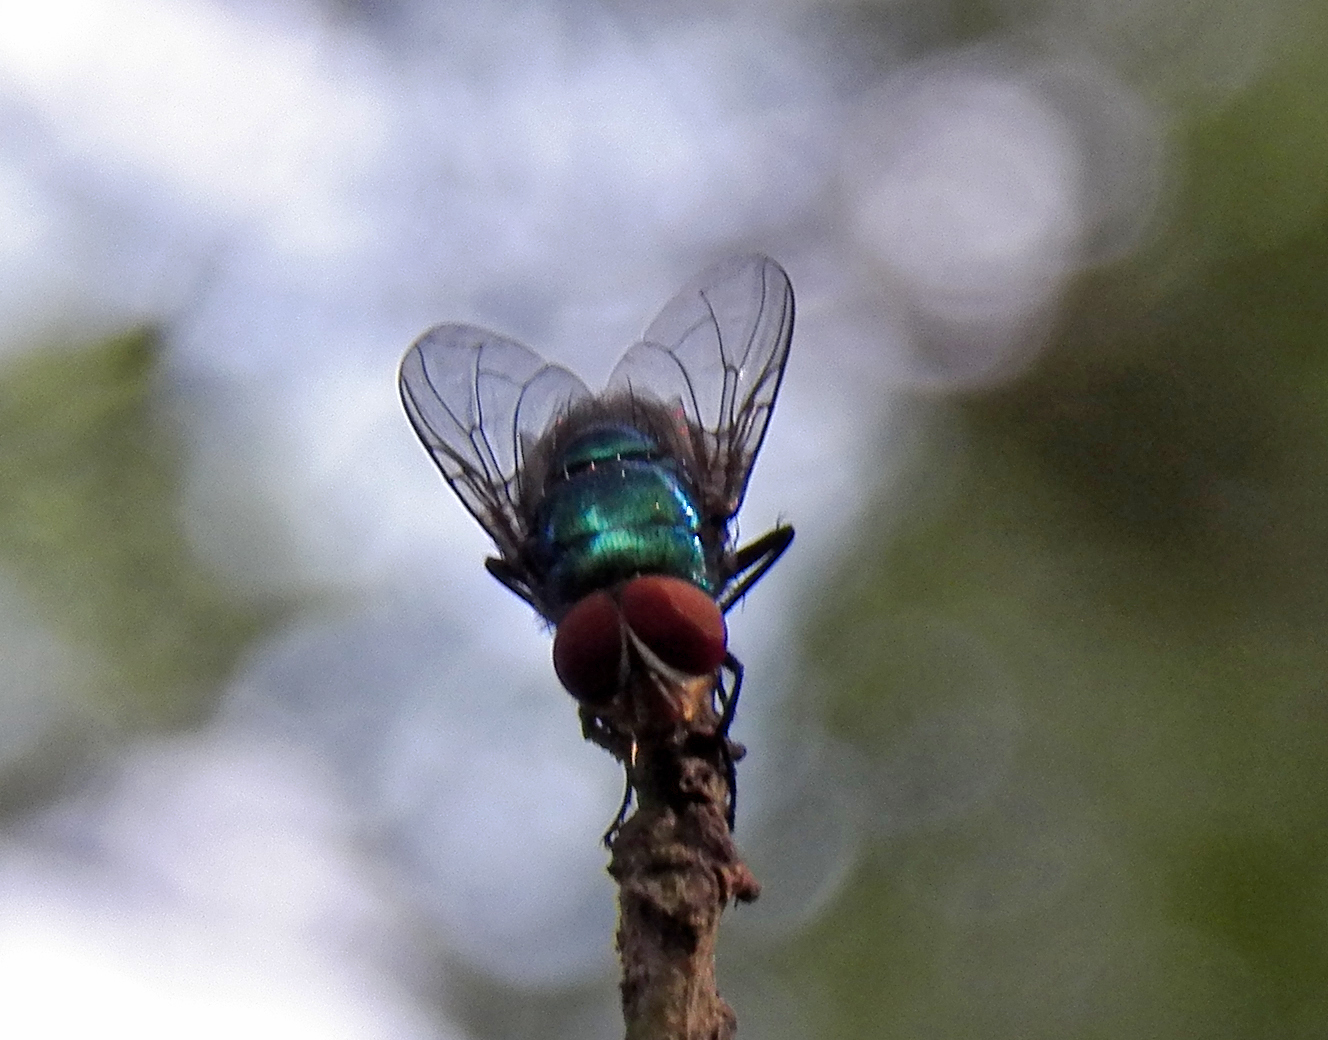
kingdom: Animalia
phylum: Arthropoda
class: Insecta
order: Diptera
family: Calliphoridae
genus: Chrysomya
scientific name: Chrysomya megacephala
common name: Blow fly
